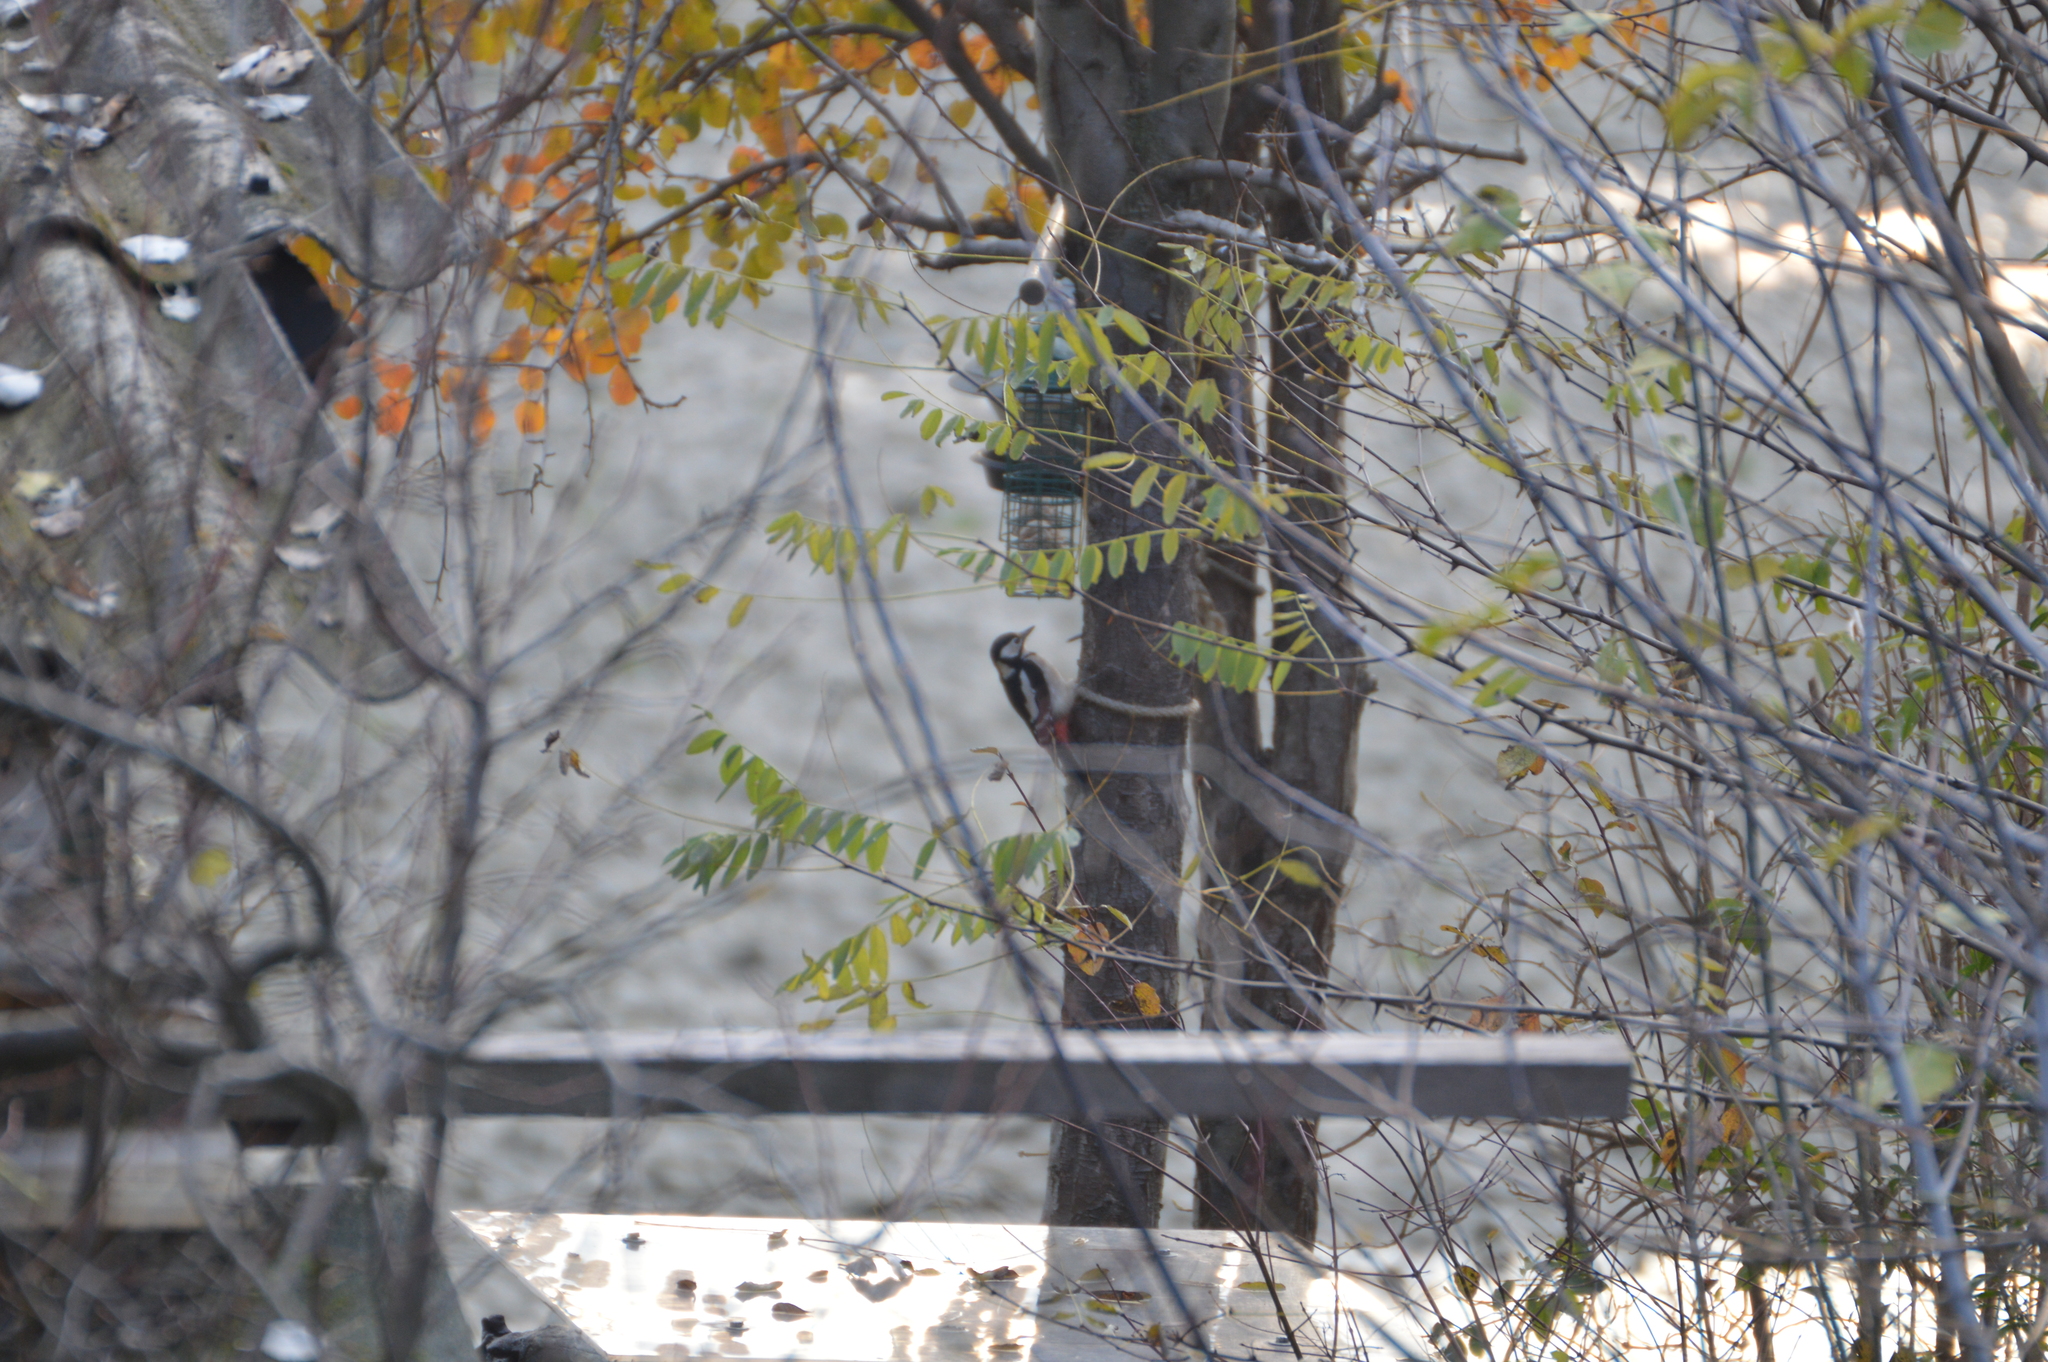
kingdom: Animalia
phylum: Chordata
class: Aves
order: Piciformes
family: Picidae
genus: Dendrocopos
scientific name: Dendrocopos major
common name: Great spotted woodpecker
